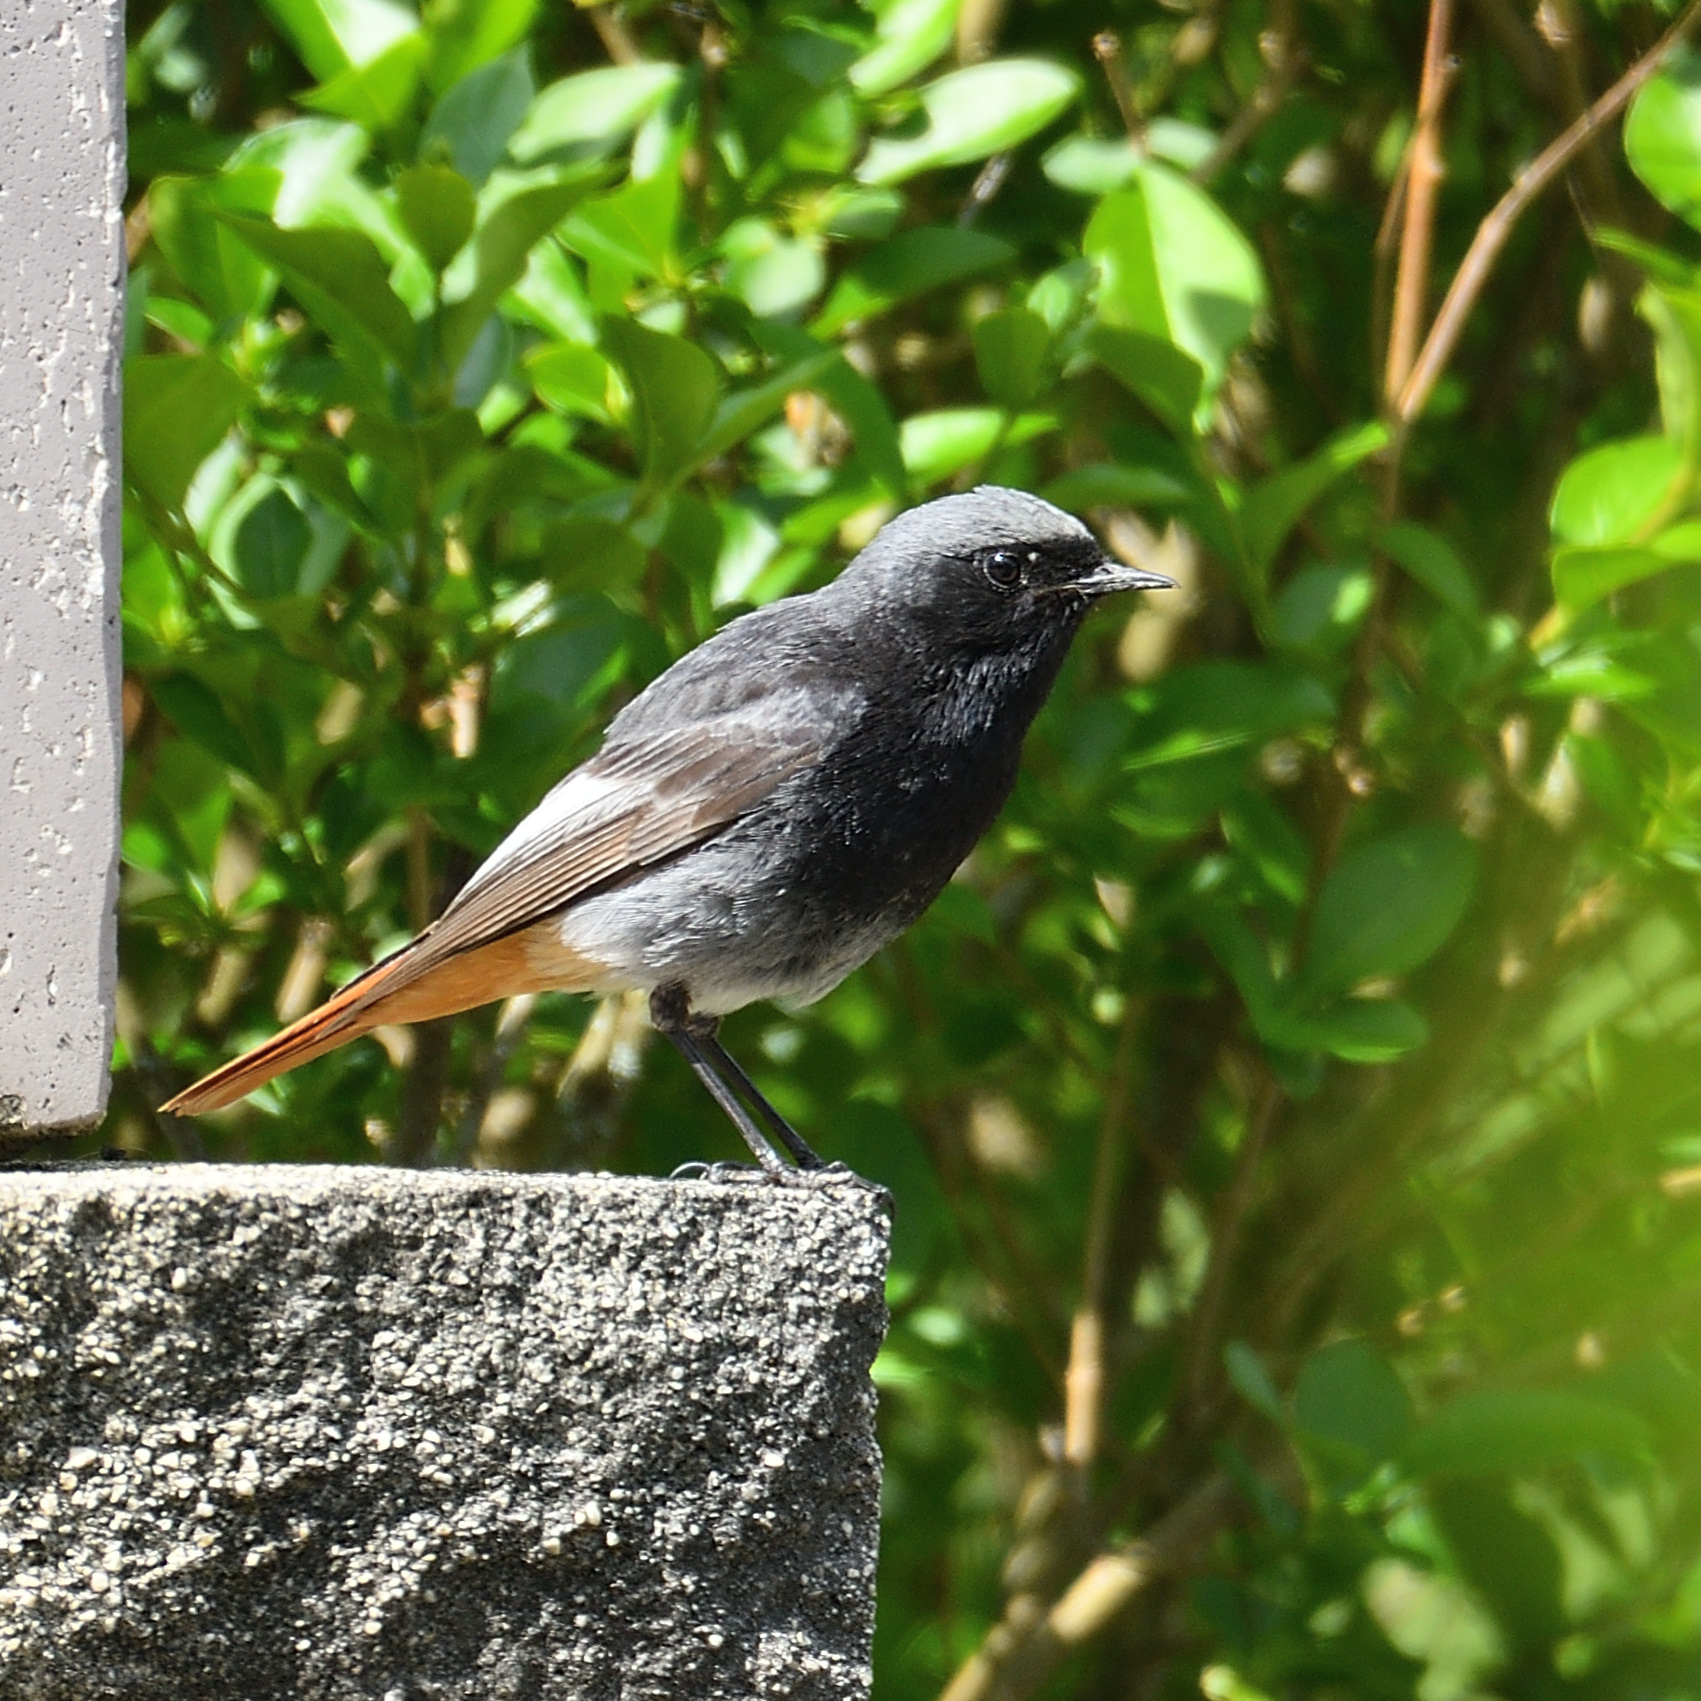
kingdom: Animalia
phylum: Chordata
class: Aves
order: Passeriformes
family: Muscicapidae
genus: Phoenicurus
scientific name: Phoenicurus ochruros
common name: Black redstart
